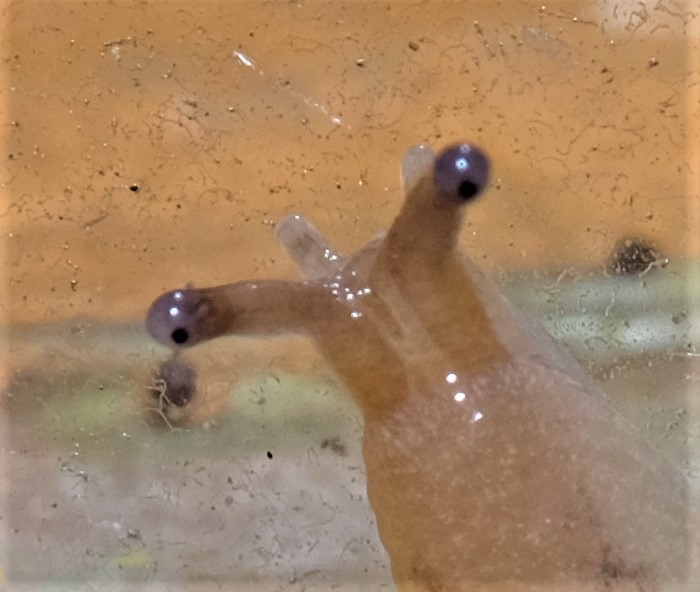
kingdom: Animalia
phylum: Mollusca
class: Gastropoda
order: Stylommatophora
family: Limacidae
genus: Ambigolimax
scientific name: Ambigolimax
